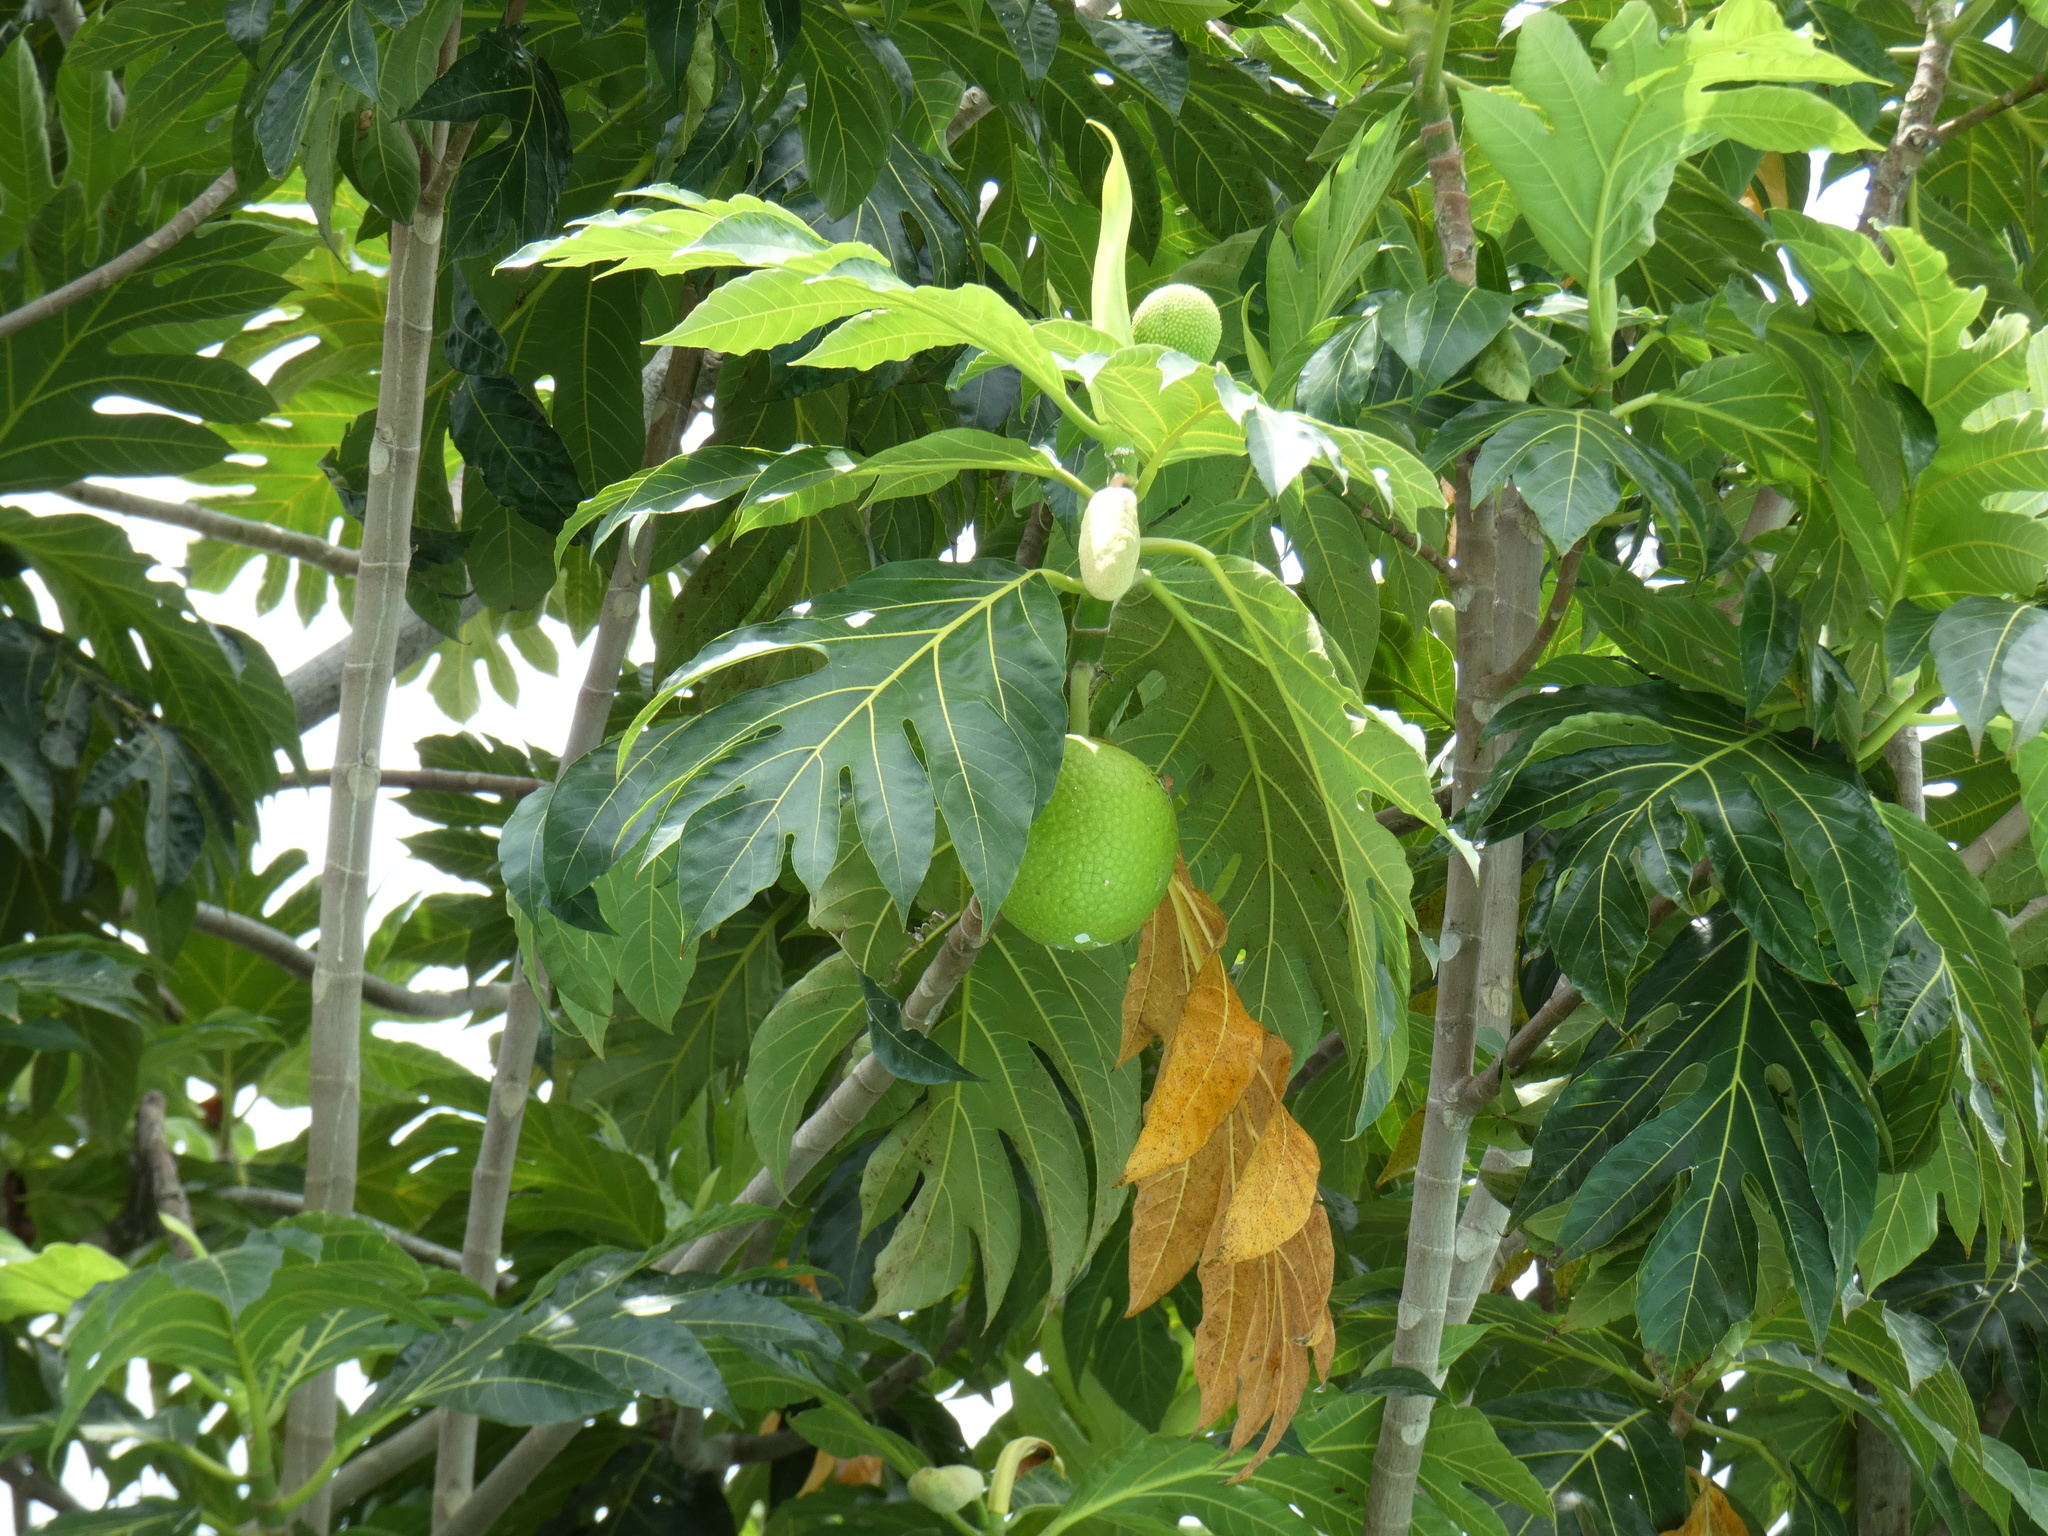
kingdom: Plantae
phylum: Tracheophyta
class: Magnoliopsida
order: Rosales
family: Moraceae
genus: Artocarpus
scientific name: Artocarpus altilis
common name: Breadfruit
